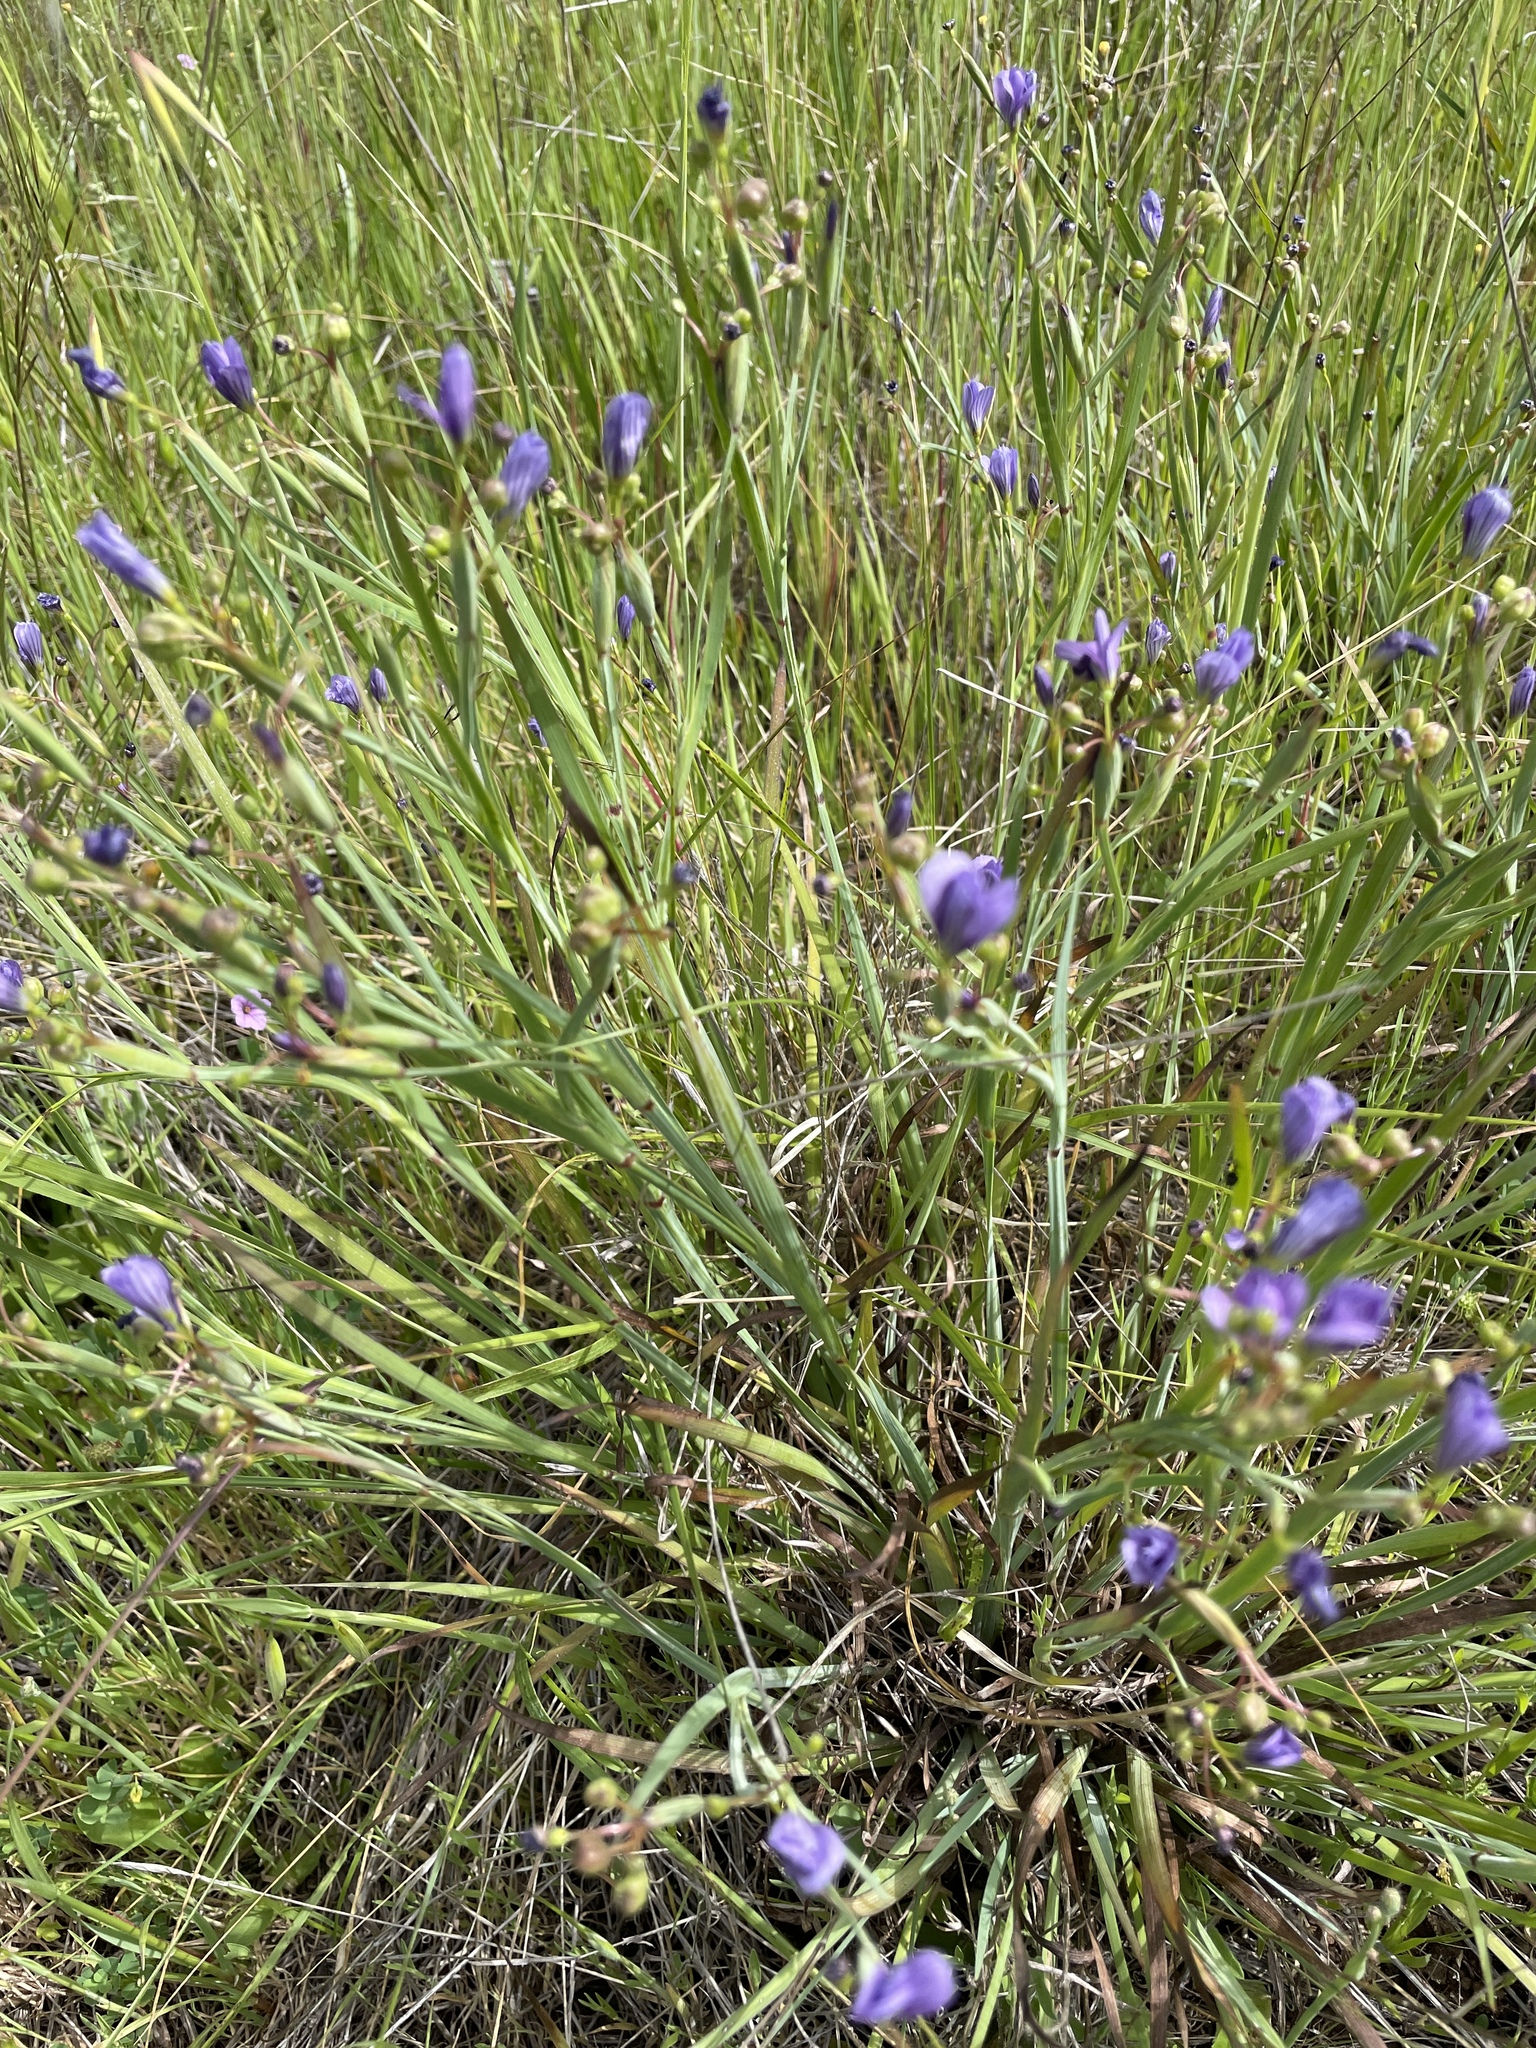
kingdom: Plantae
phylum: Tracheophyta
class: Liliopsida
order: Asparagales
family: Iridaceae
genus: Sisyrinchium
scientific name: Sisyrinchium bellum
